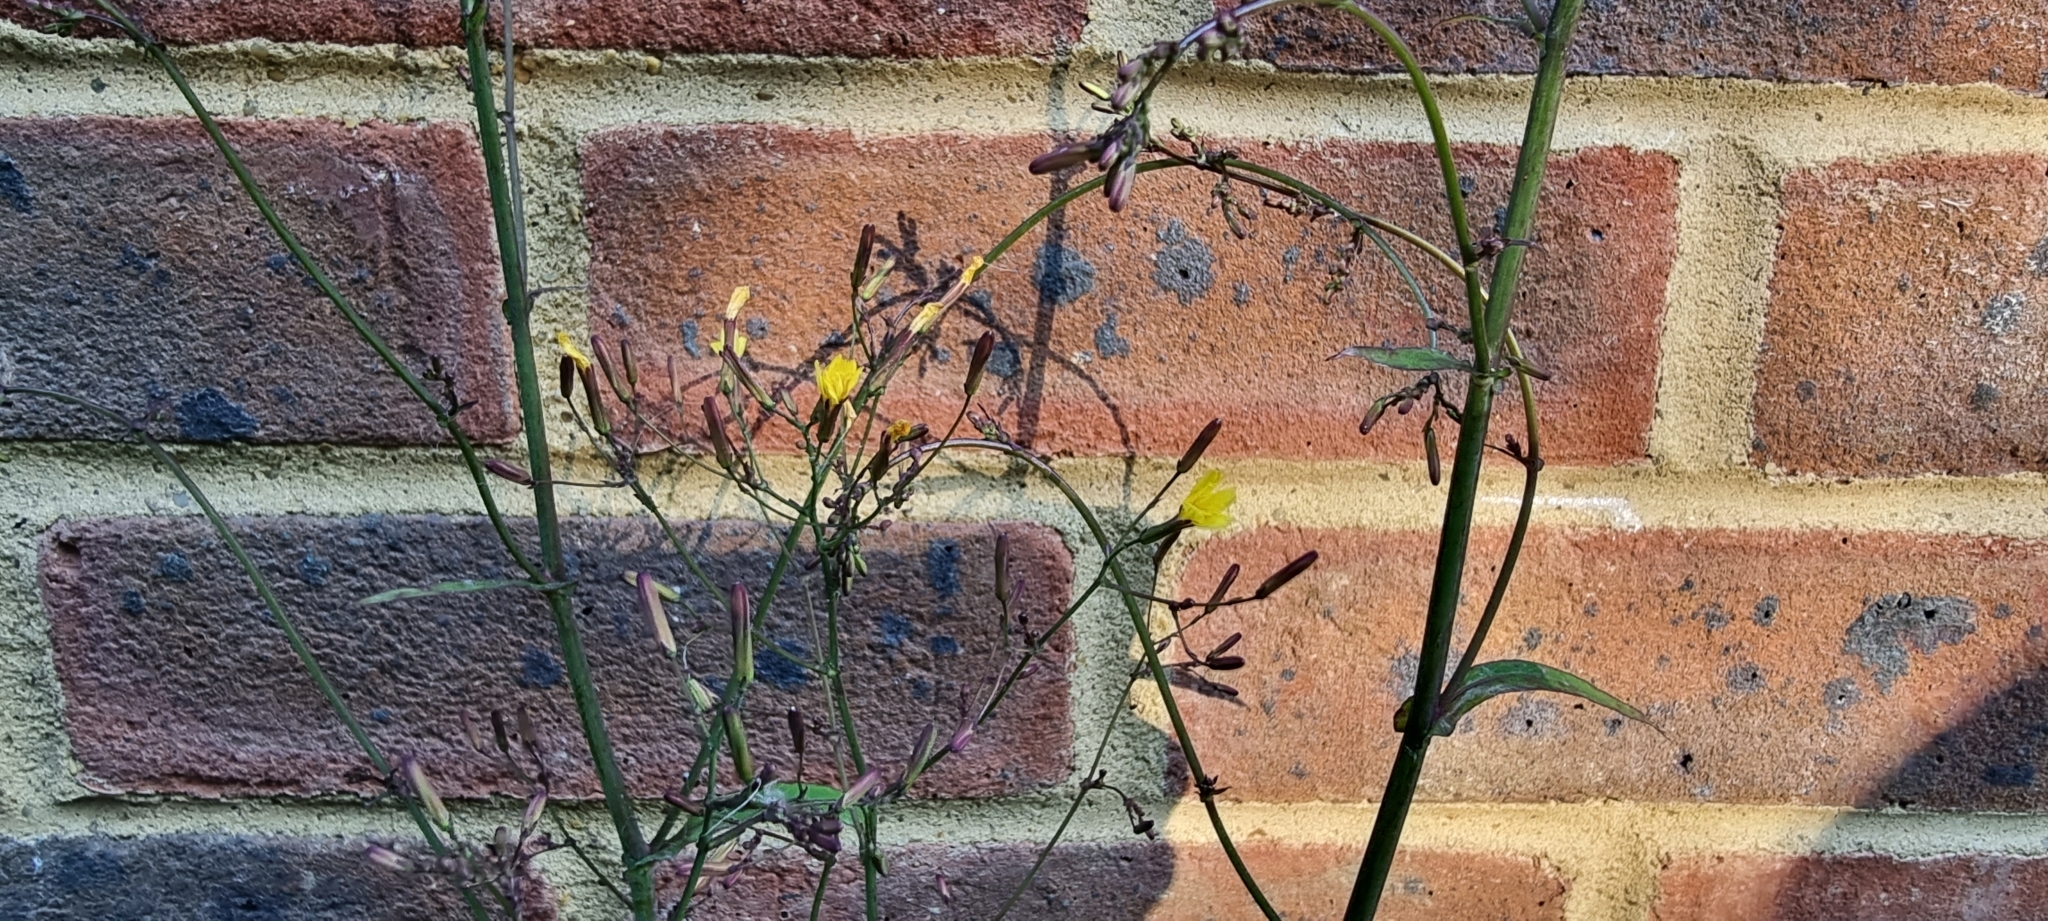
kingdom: Plantae
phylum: Tracheophyta
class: Magnoliopsida
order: Asterales
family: Asteraceae
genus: Mycelis
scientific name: Mycelis muralis
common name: Wall lettuce
